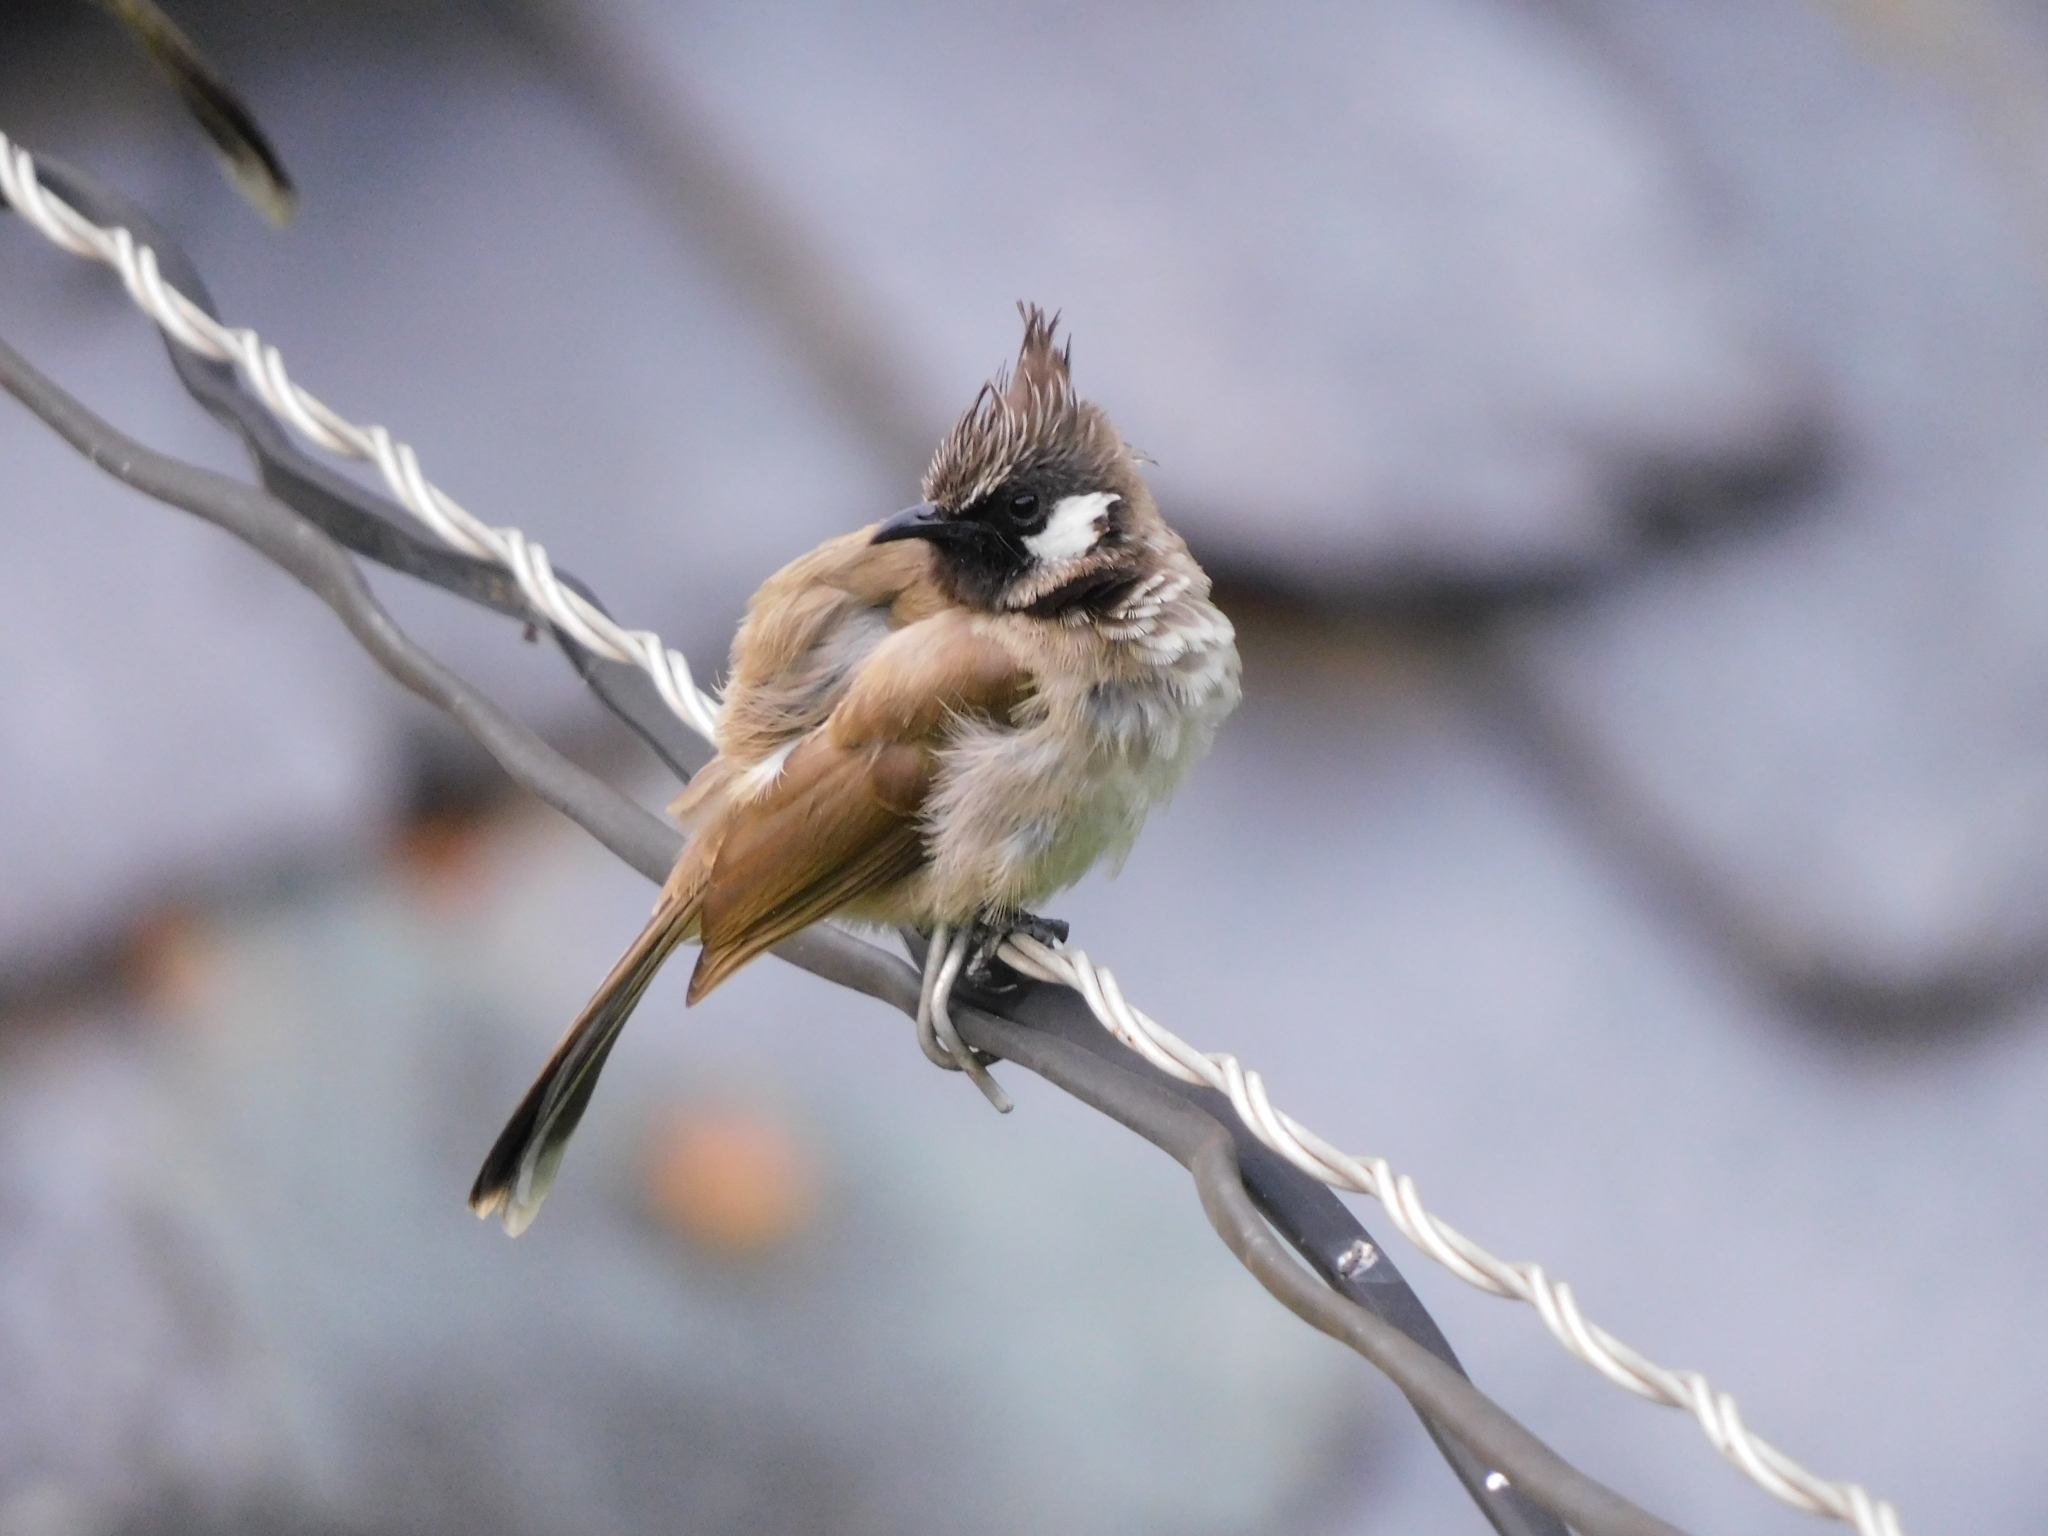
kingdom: Animalia
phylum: Chordata
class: Aves
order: Passeriformes
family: Pycnonotidae
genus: Pycnonotus
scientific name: Pycnonotus leucogenys
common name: Himalayan bulbul
